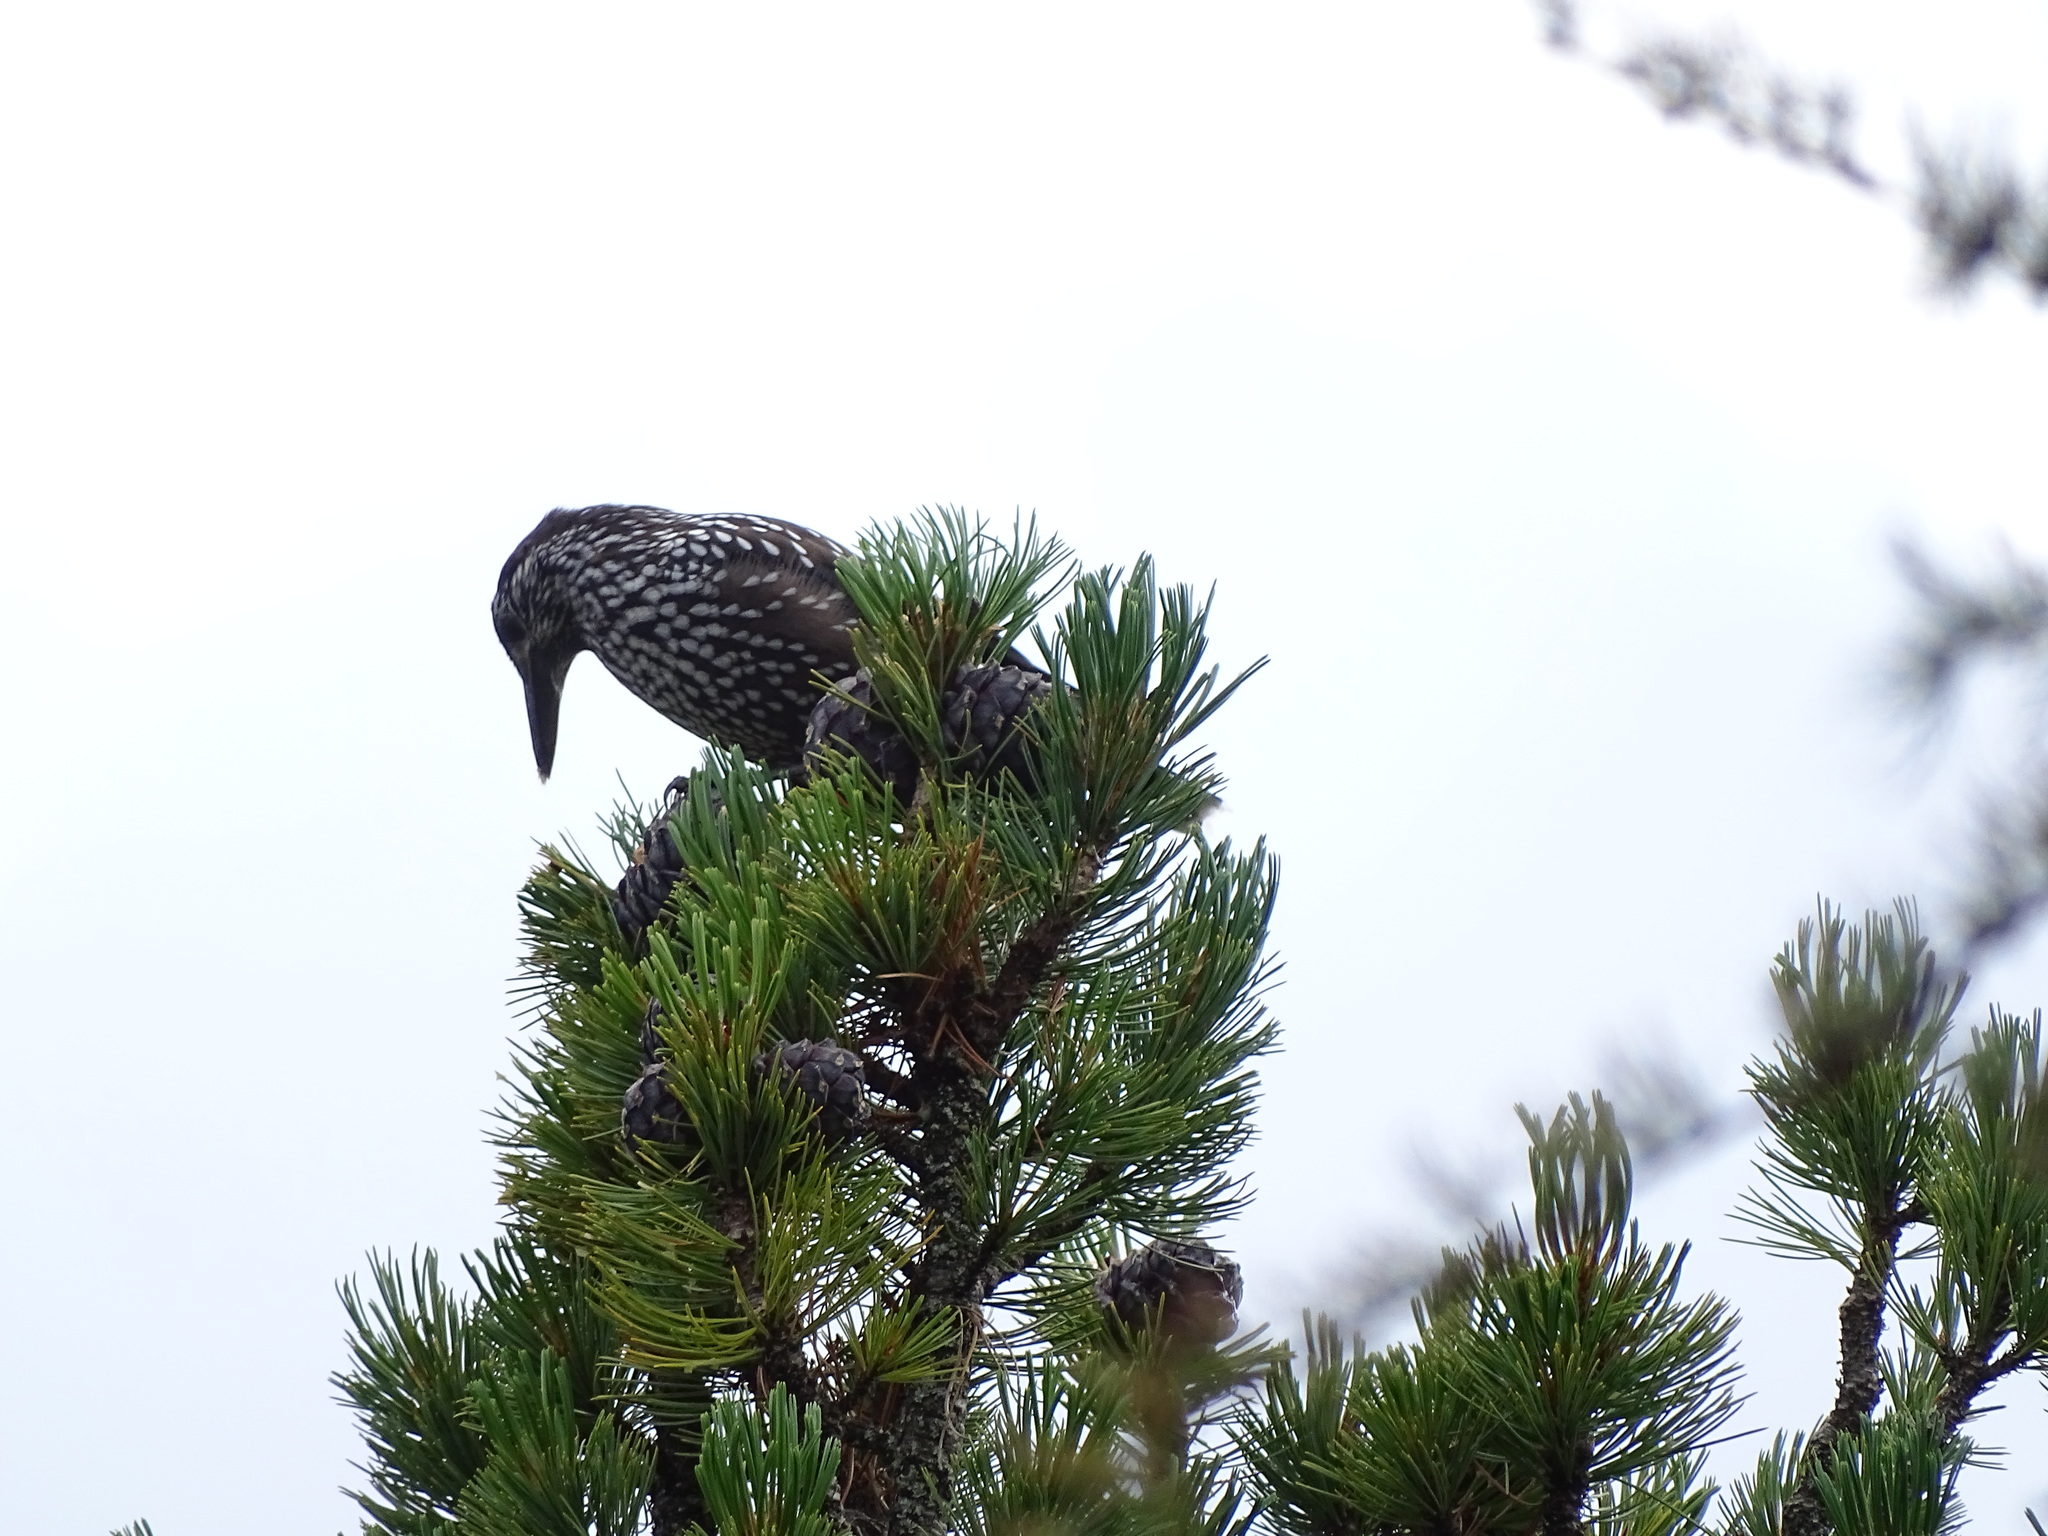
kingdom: Animalia
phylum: Chordata
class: Aves
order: Passeriformes
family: Corvidae
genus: Nucifraga
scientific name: Nucifraga caryocatactes
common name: Spotted nutcracker
